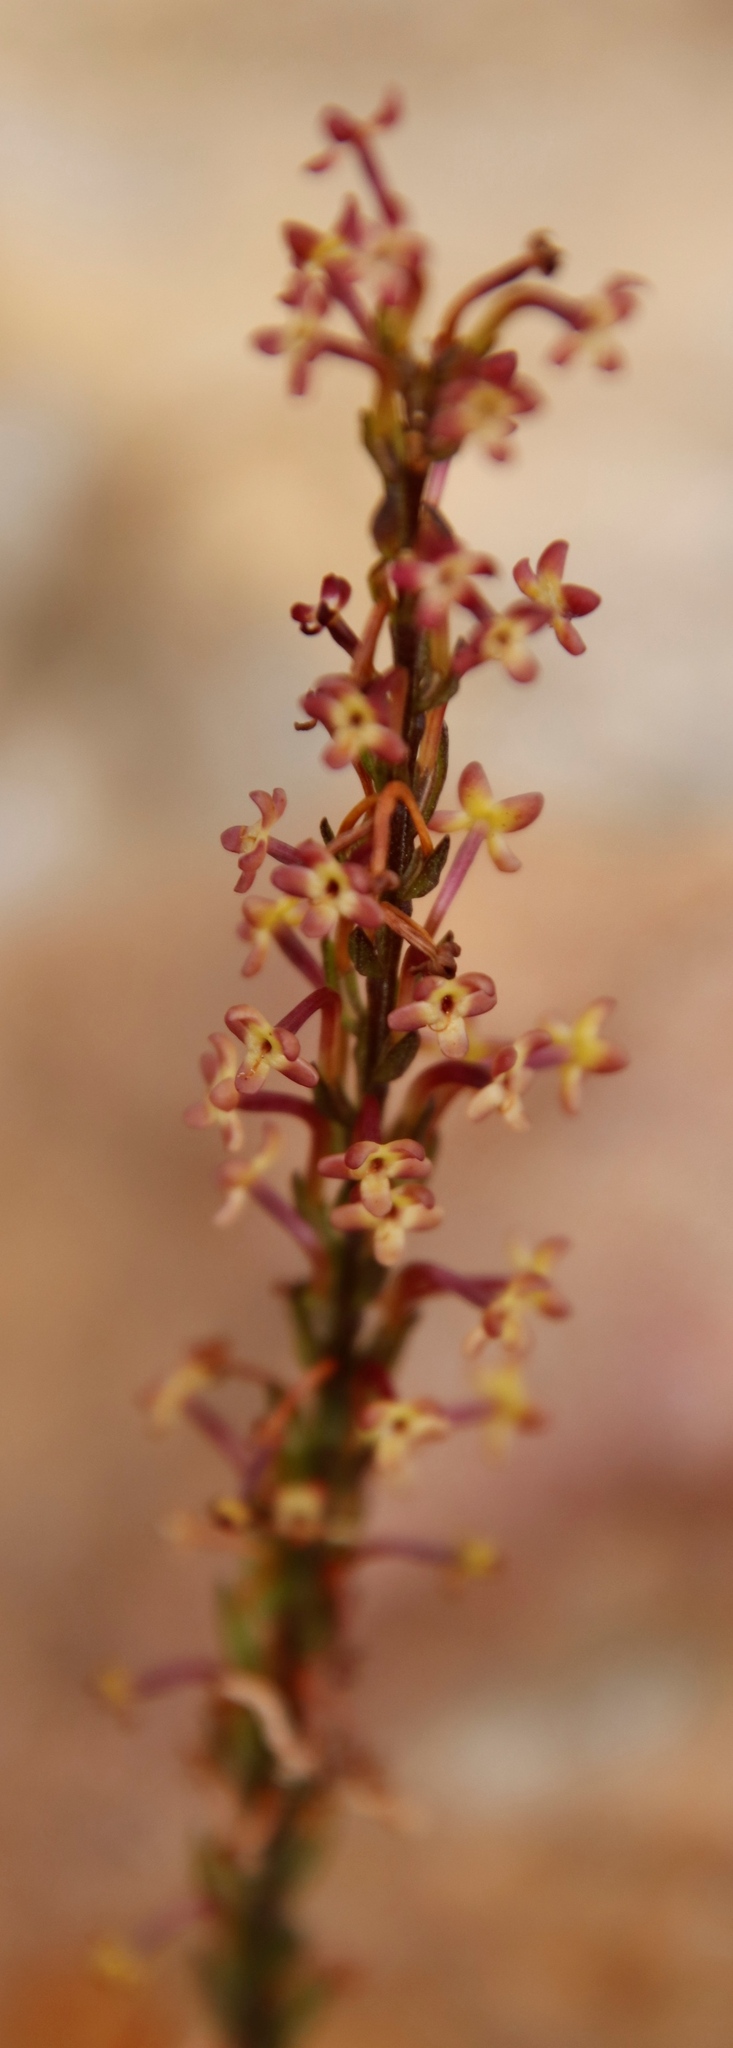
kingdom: Plantae
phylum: Tracheophyta
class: Magnoliopsida
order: Lamiales
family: Scrophulariaceae
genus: Microdon
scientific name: Microdon dubius
